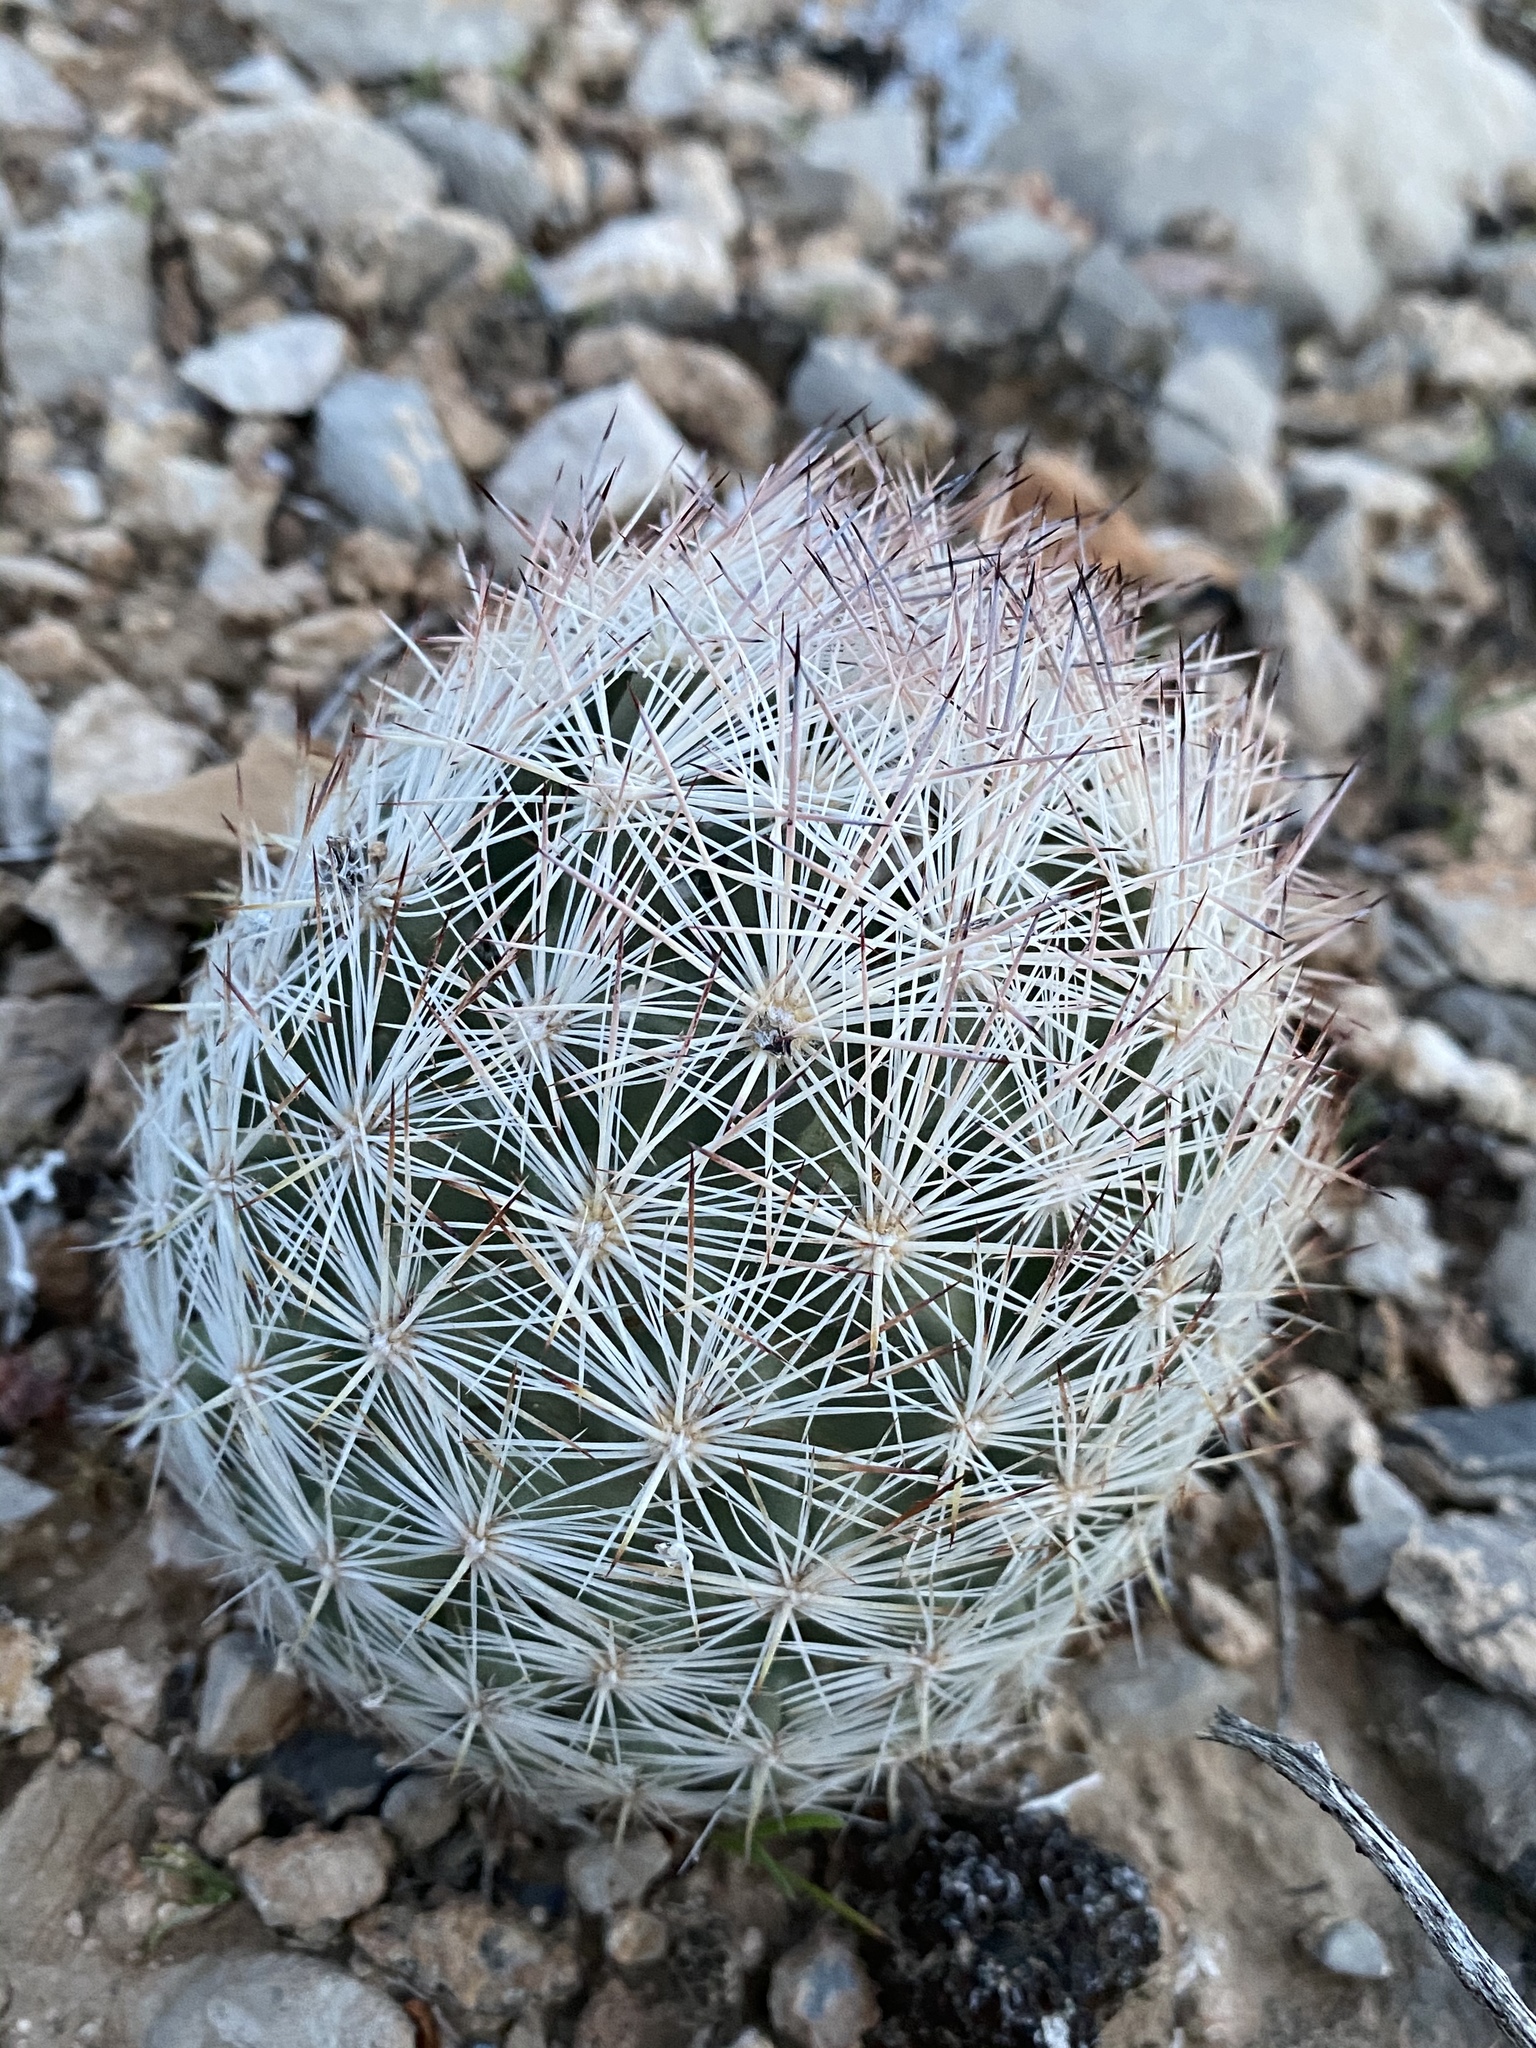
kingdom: Plantae
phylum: Tracheophyta
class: Magnoliopsida
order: Caryophyllales
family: Cactaceae
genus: Pelecyphora
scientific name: Pelecyphora dasyacantha
